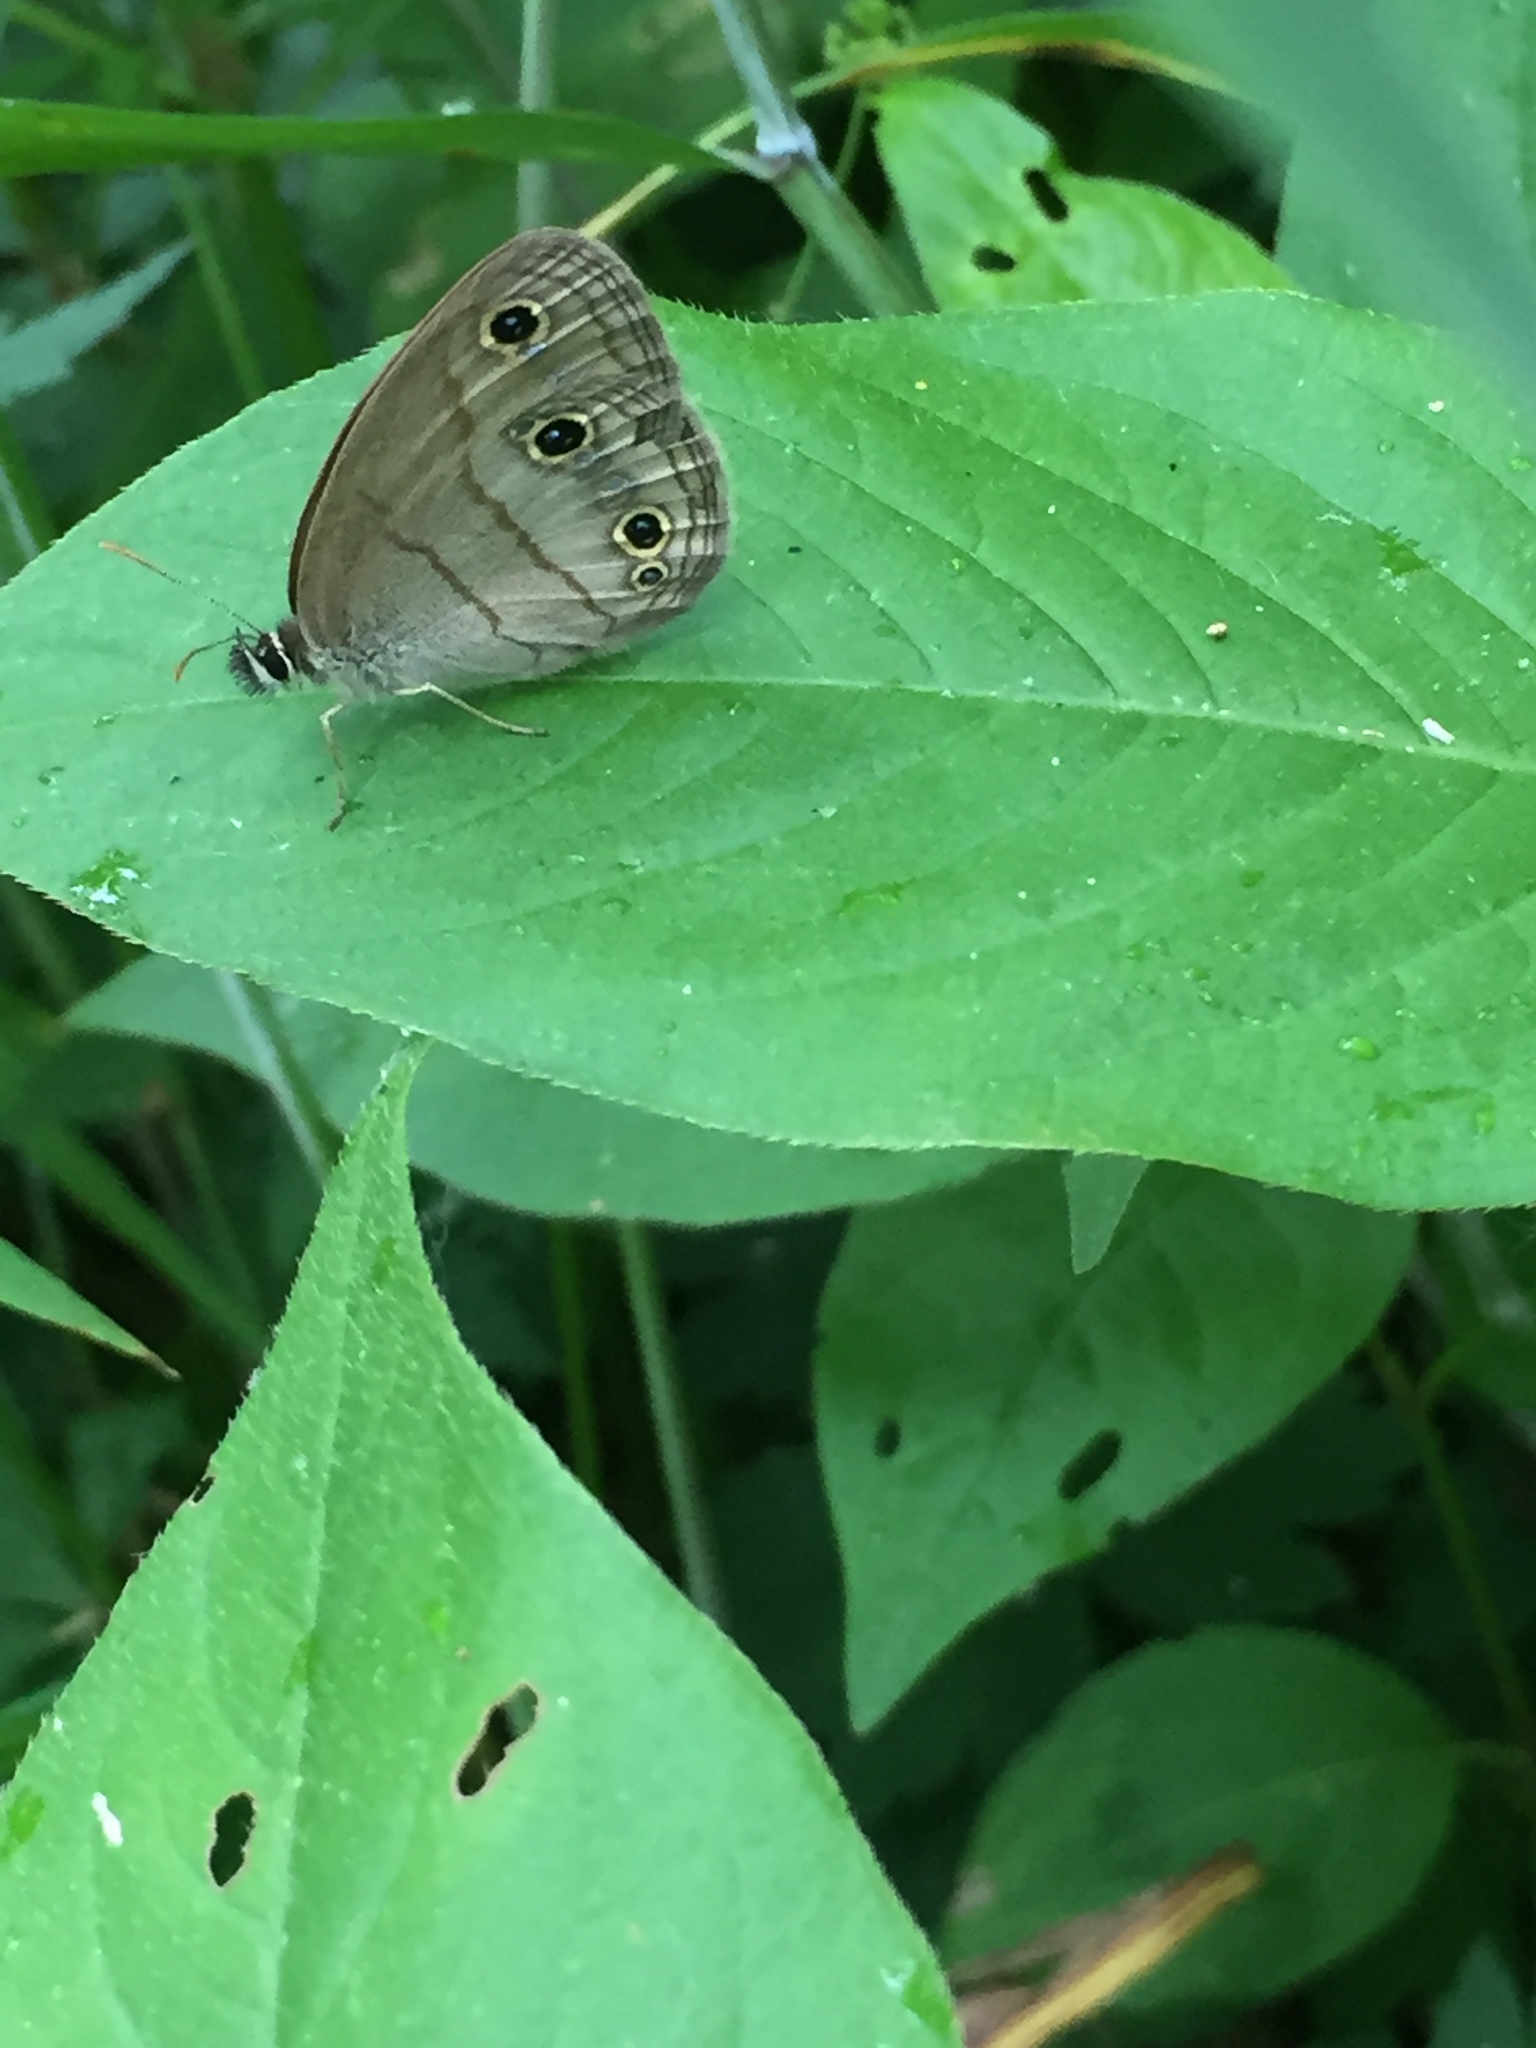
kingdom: Animalia
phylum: Arthropoda
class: Insecta
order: Lepidoptera
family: Nymphalidae
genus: Euptychia
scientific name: Euptychia cymela
